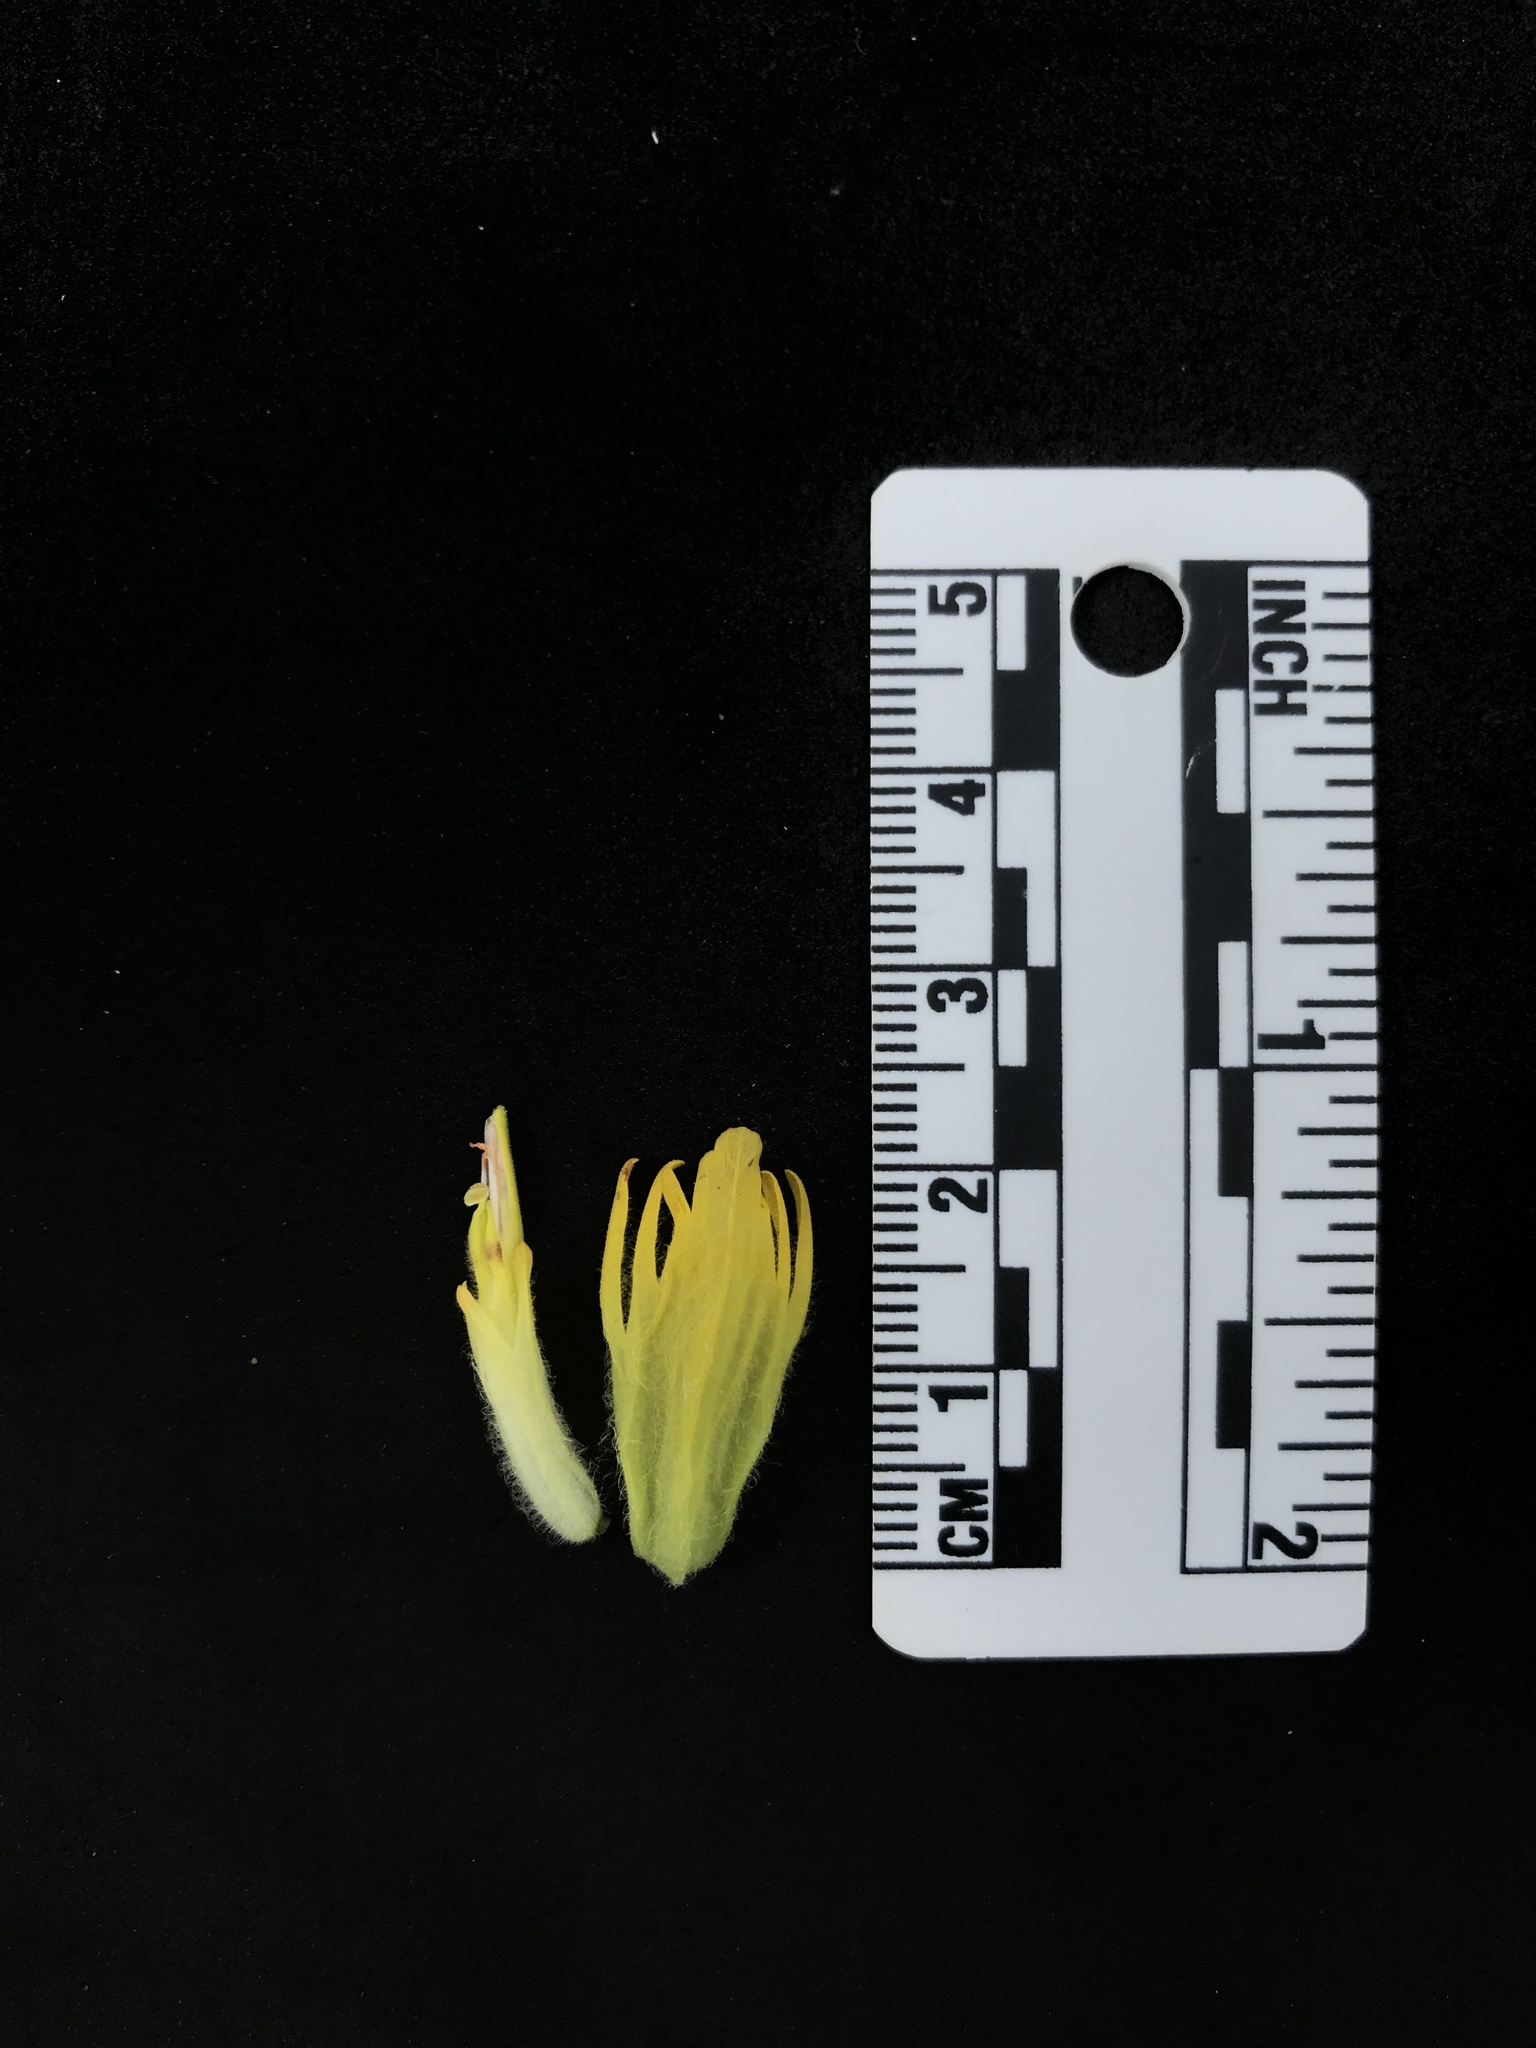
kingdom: Plantae
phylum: Tracheophyta
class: Magnoliopsida
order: Lamiales
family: Orobanchaceae
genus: Castilleja
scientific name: Castilleja levisecta
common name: Golden paintbrush
